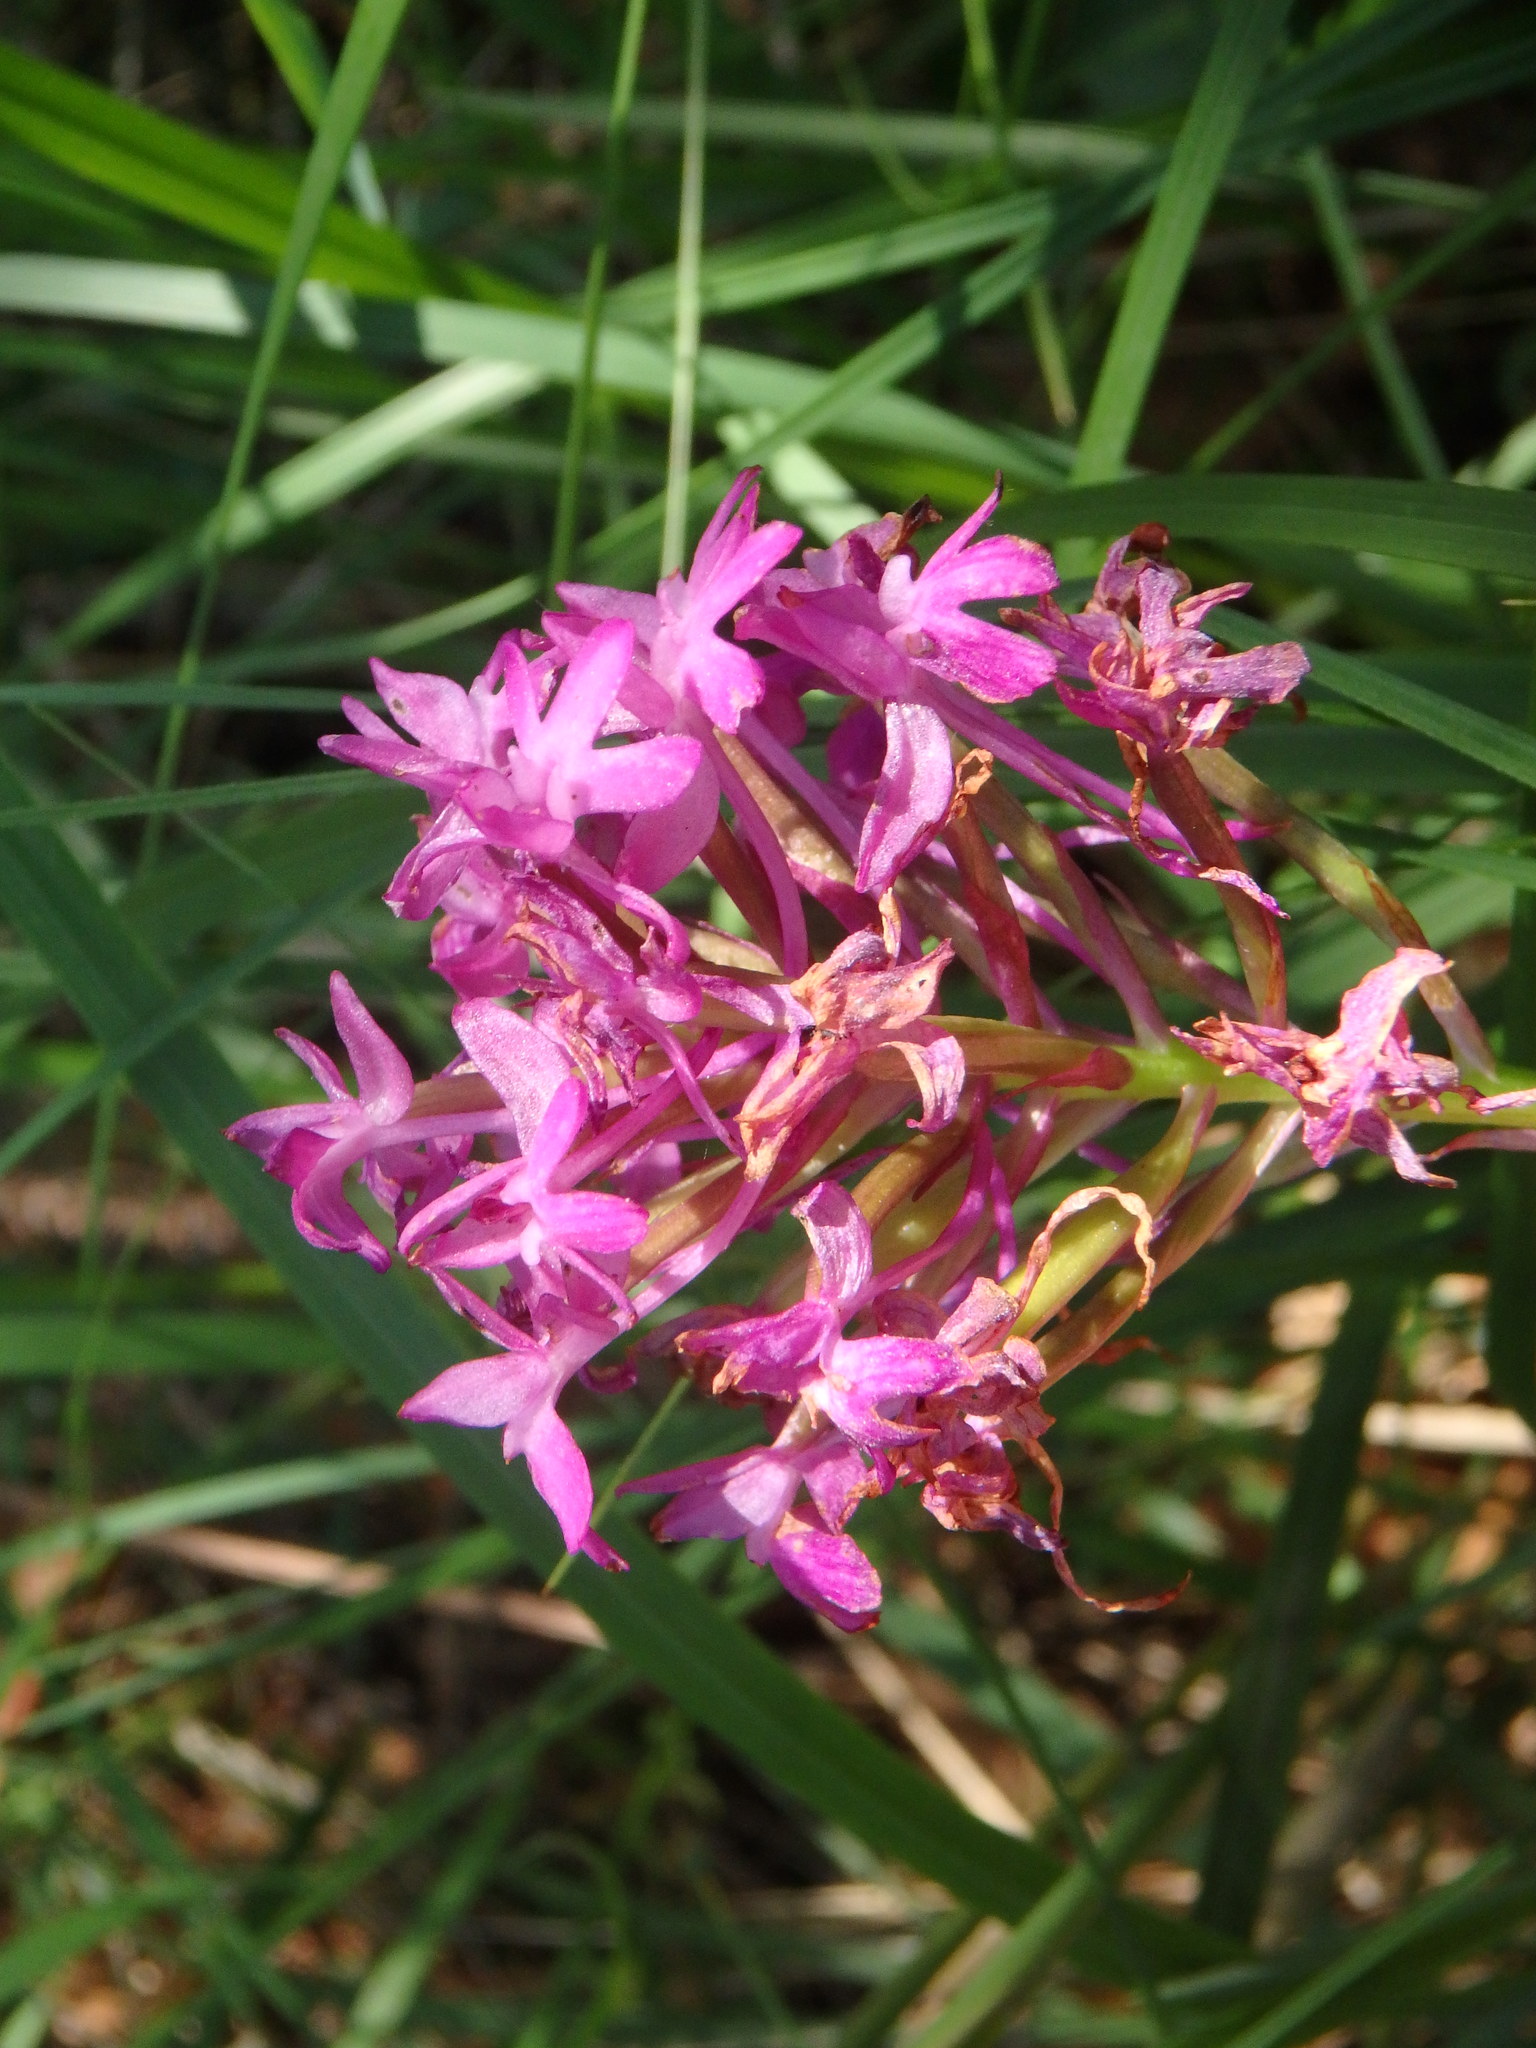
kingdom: Plantae
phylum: Tracheophyta
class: Liliopsida
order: Asparagales
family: Orchidaceae
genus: Anacamptis
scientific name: Anacamptis pyramidalis
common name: Pyramidal orchid
